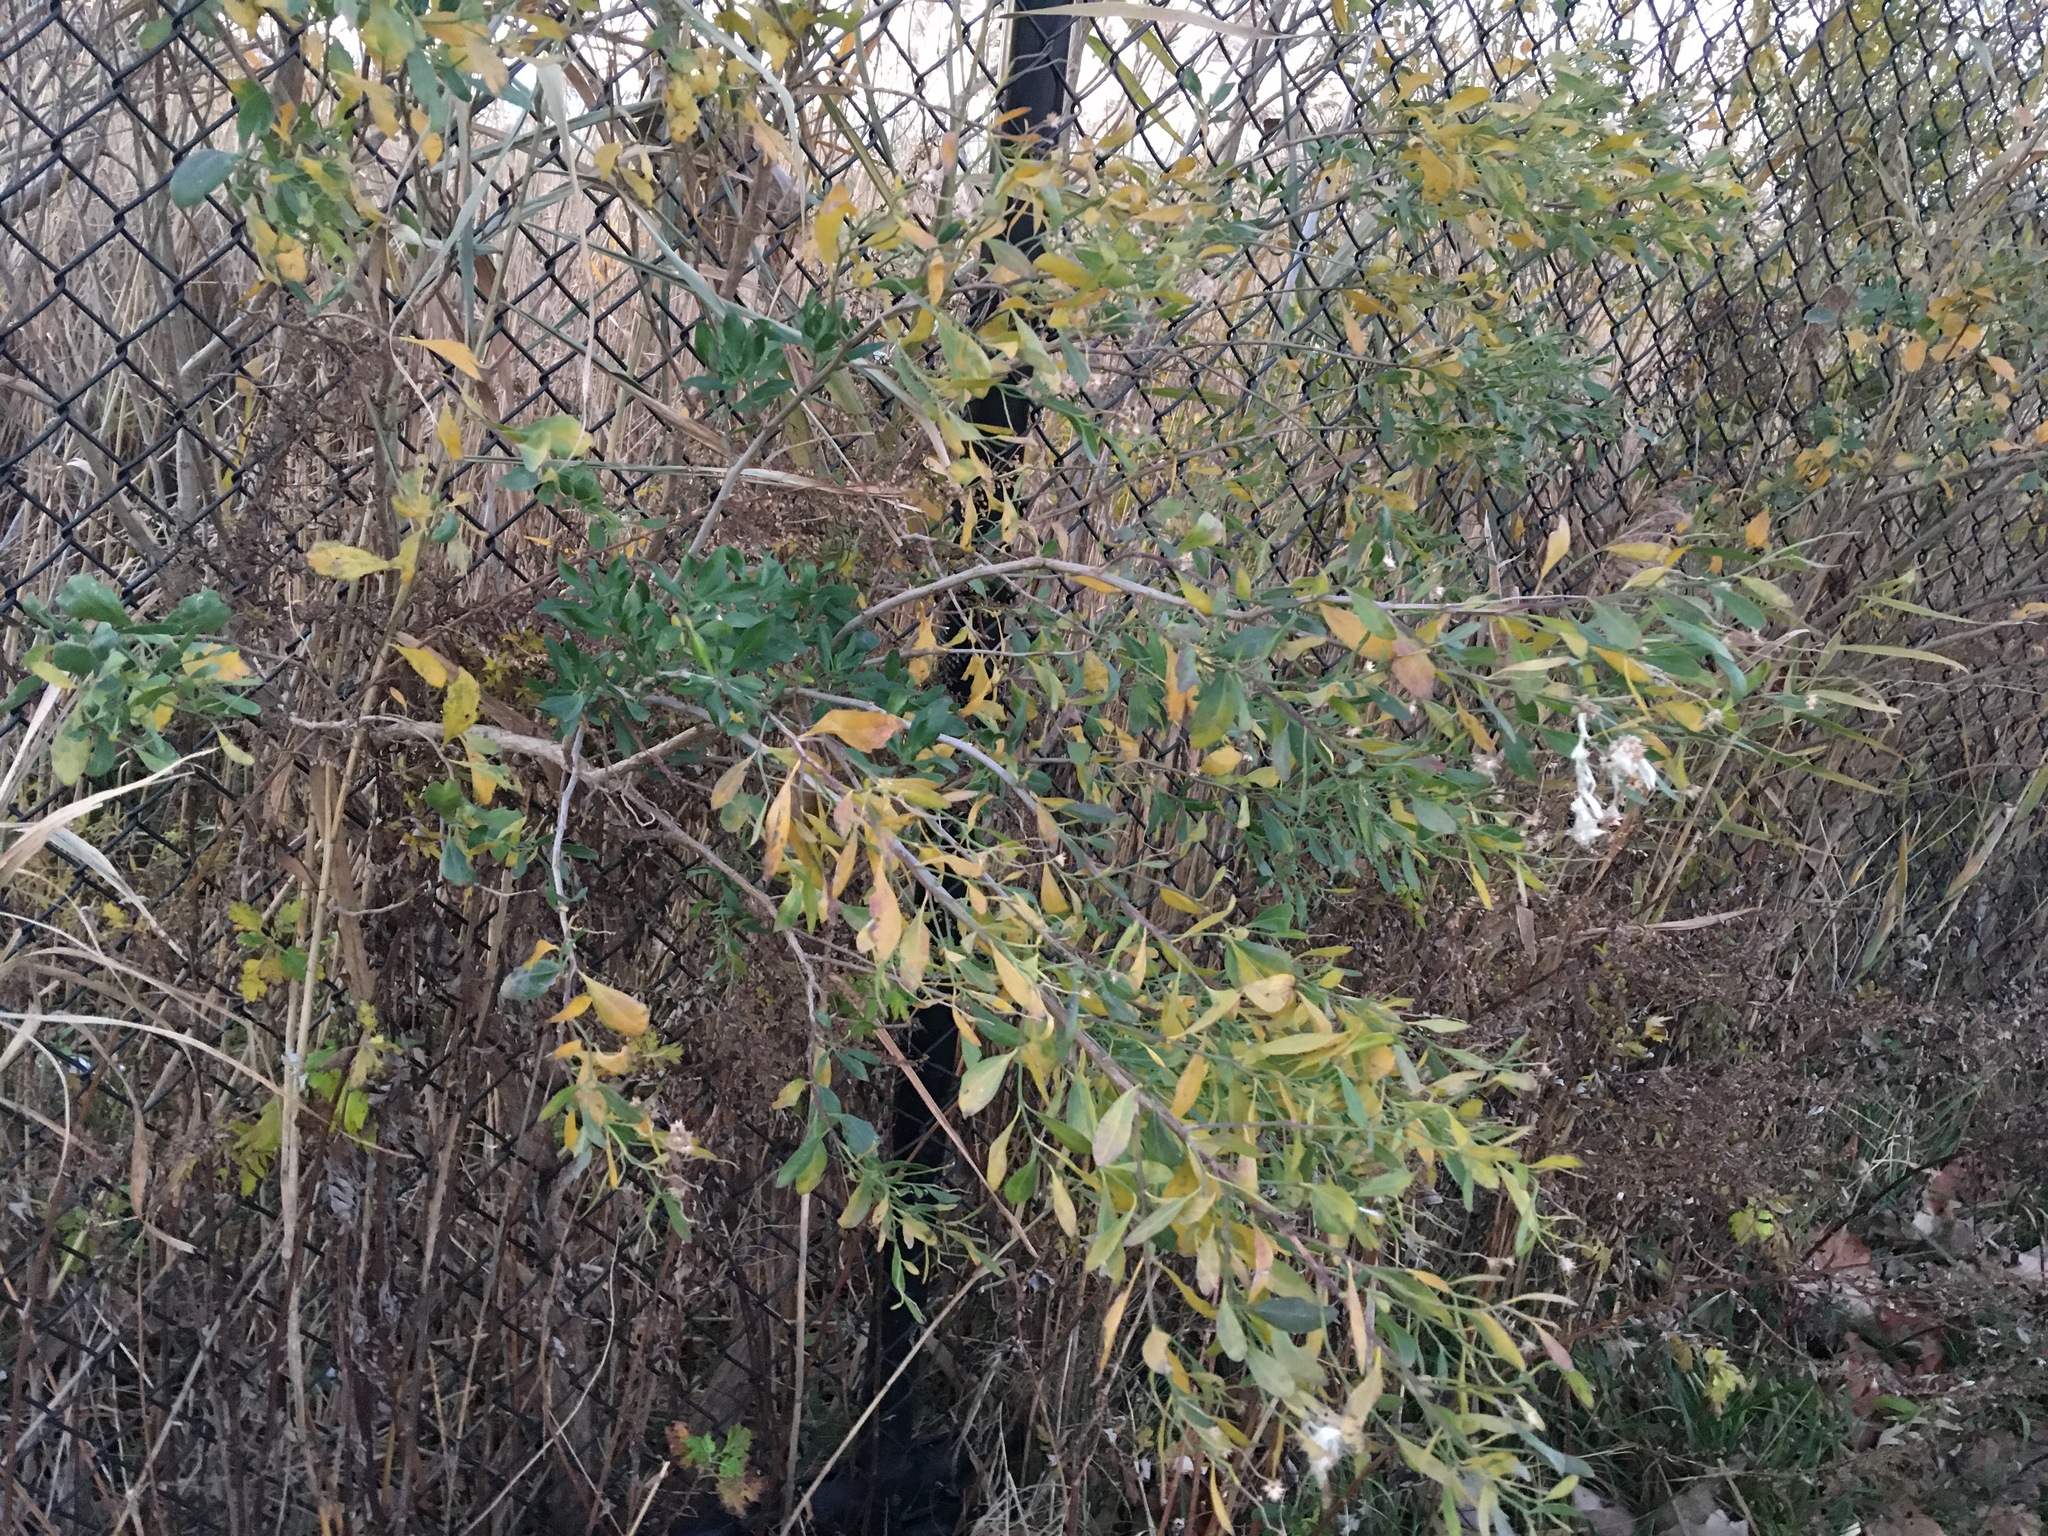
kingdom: Plantae
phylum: Tracheophyta
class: Magnoliopsida
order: Asterales
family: Asteraceae
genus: Baccharis
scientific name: Baccharis halimifolia
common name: Eastern baccharis
